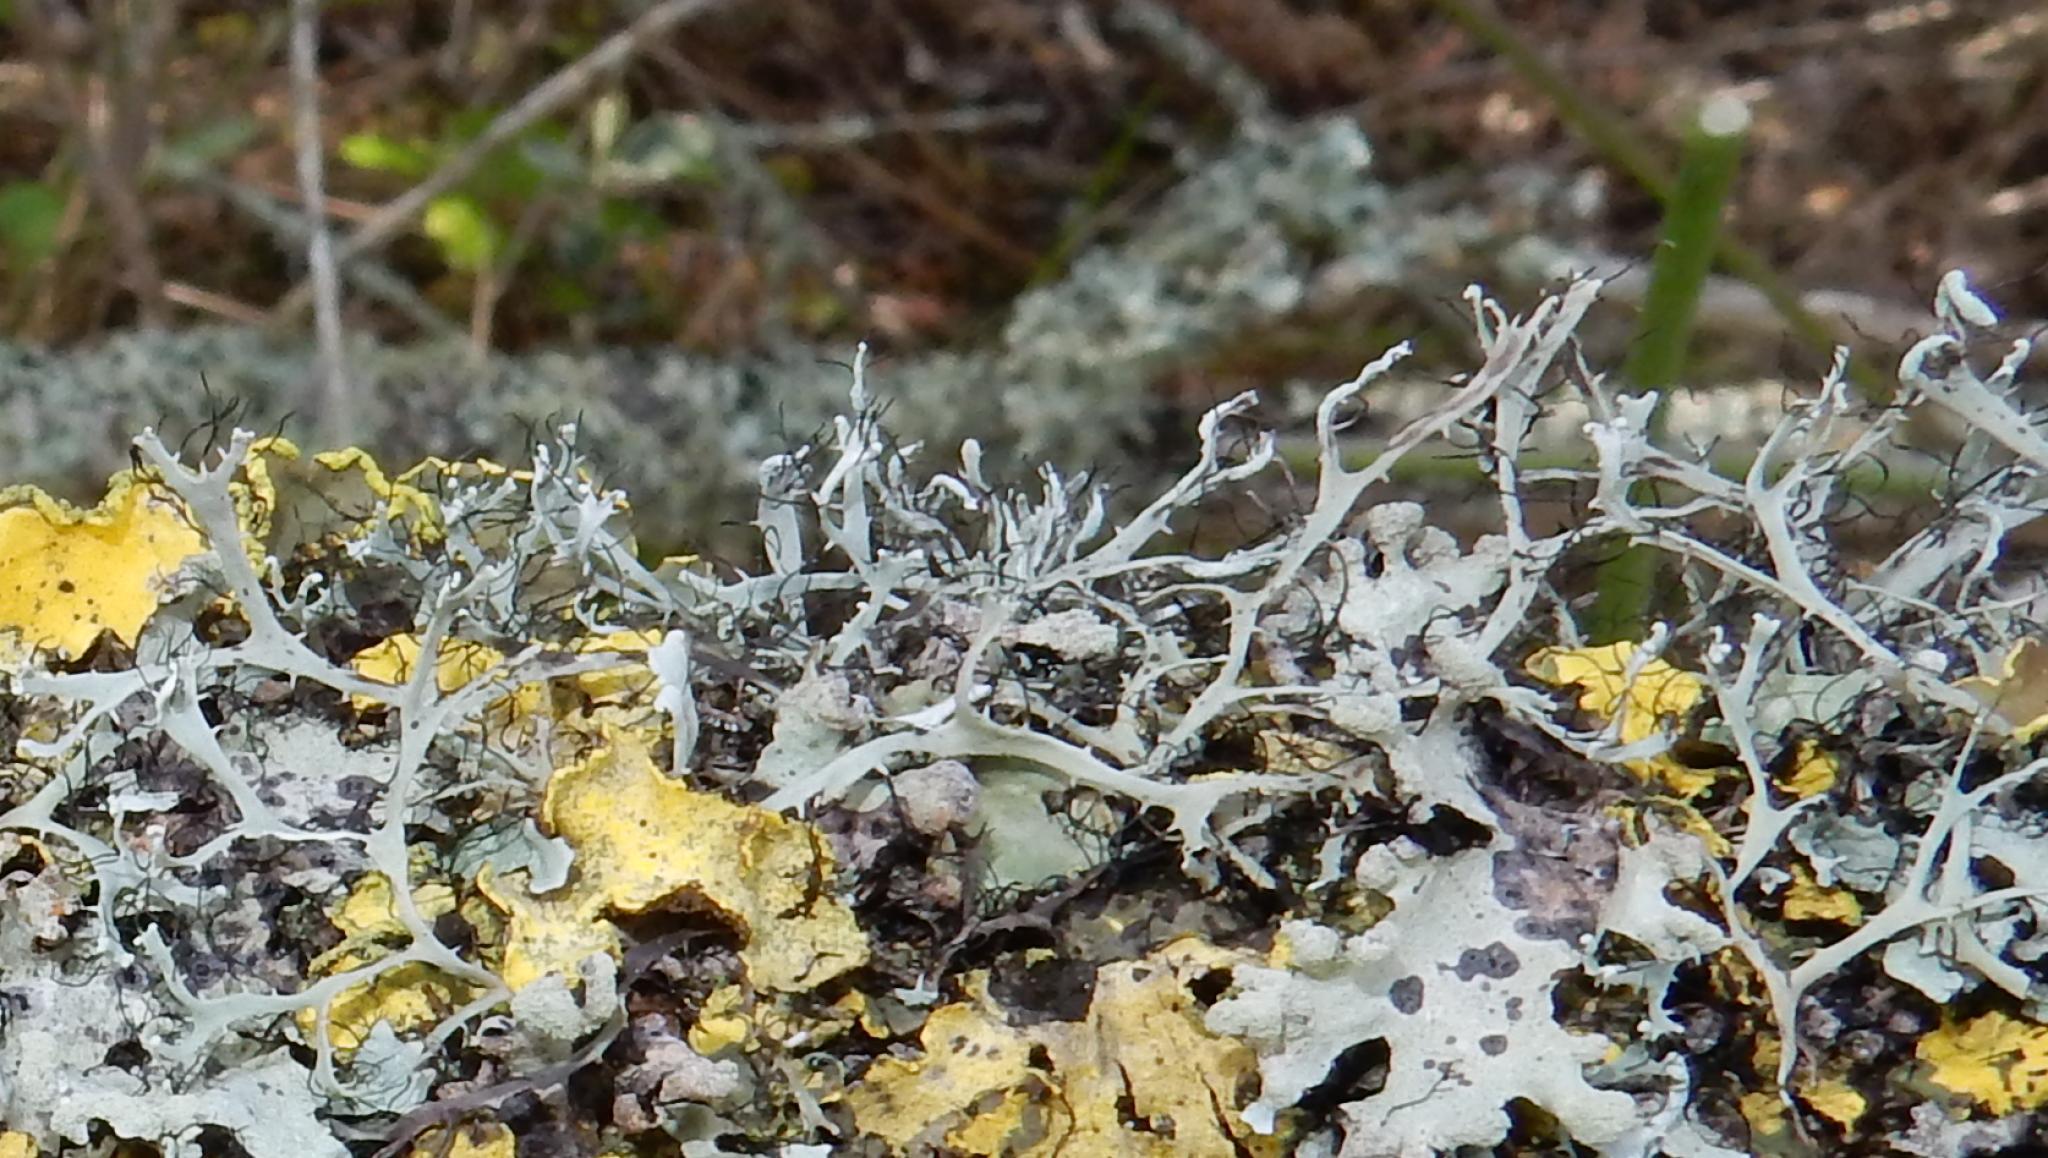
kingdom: Fungi
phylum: Ascomycota
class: Lecanoromycetes
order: Caliciales
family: Physciaceae
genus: Leucodermia
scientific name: Leucodermia leucomelos
